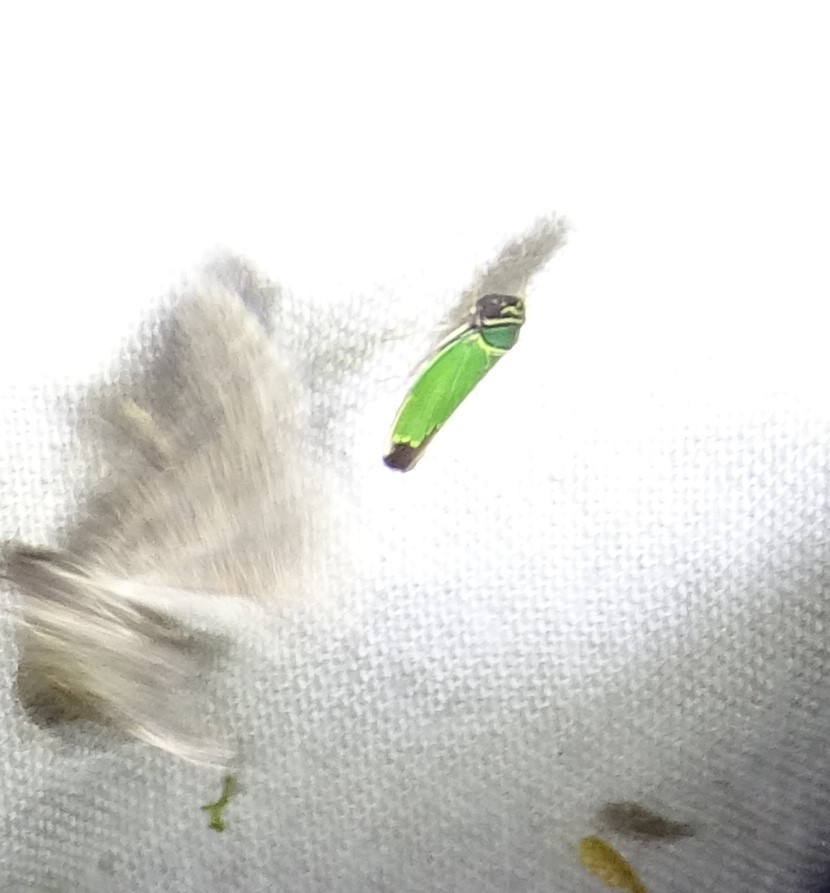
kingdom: Animalia
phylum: Arthropoda
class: Insecta
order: Hemiptera
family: Cicadellidae
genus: Tylozygus
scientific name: Tylozygus geometricus
